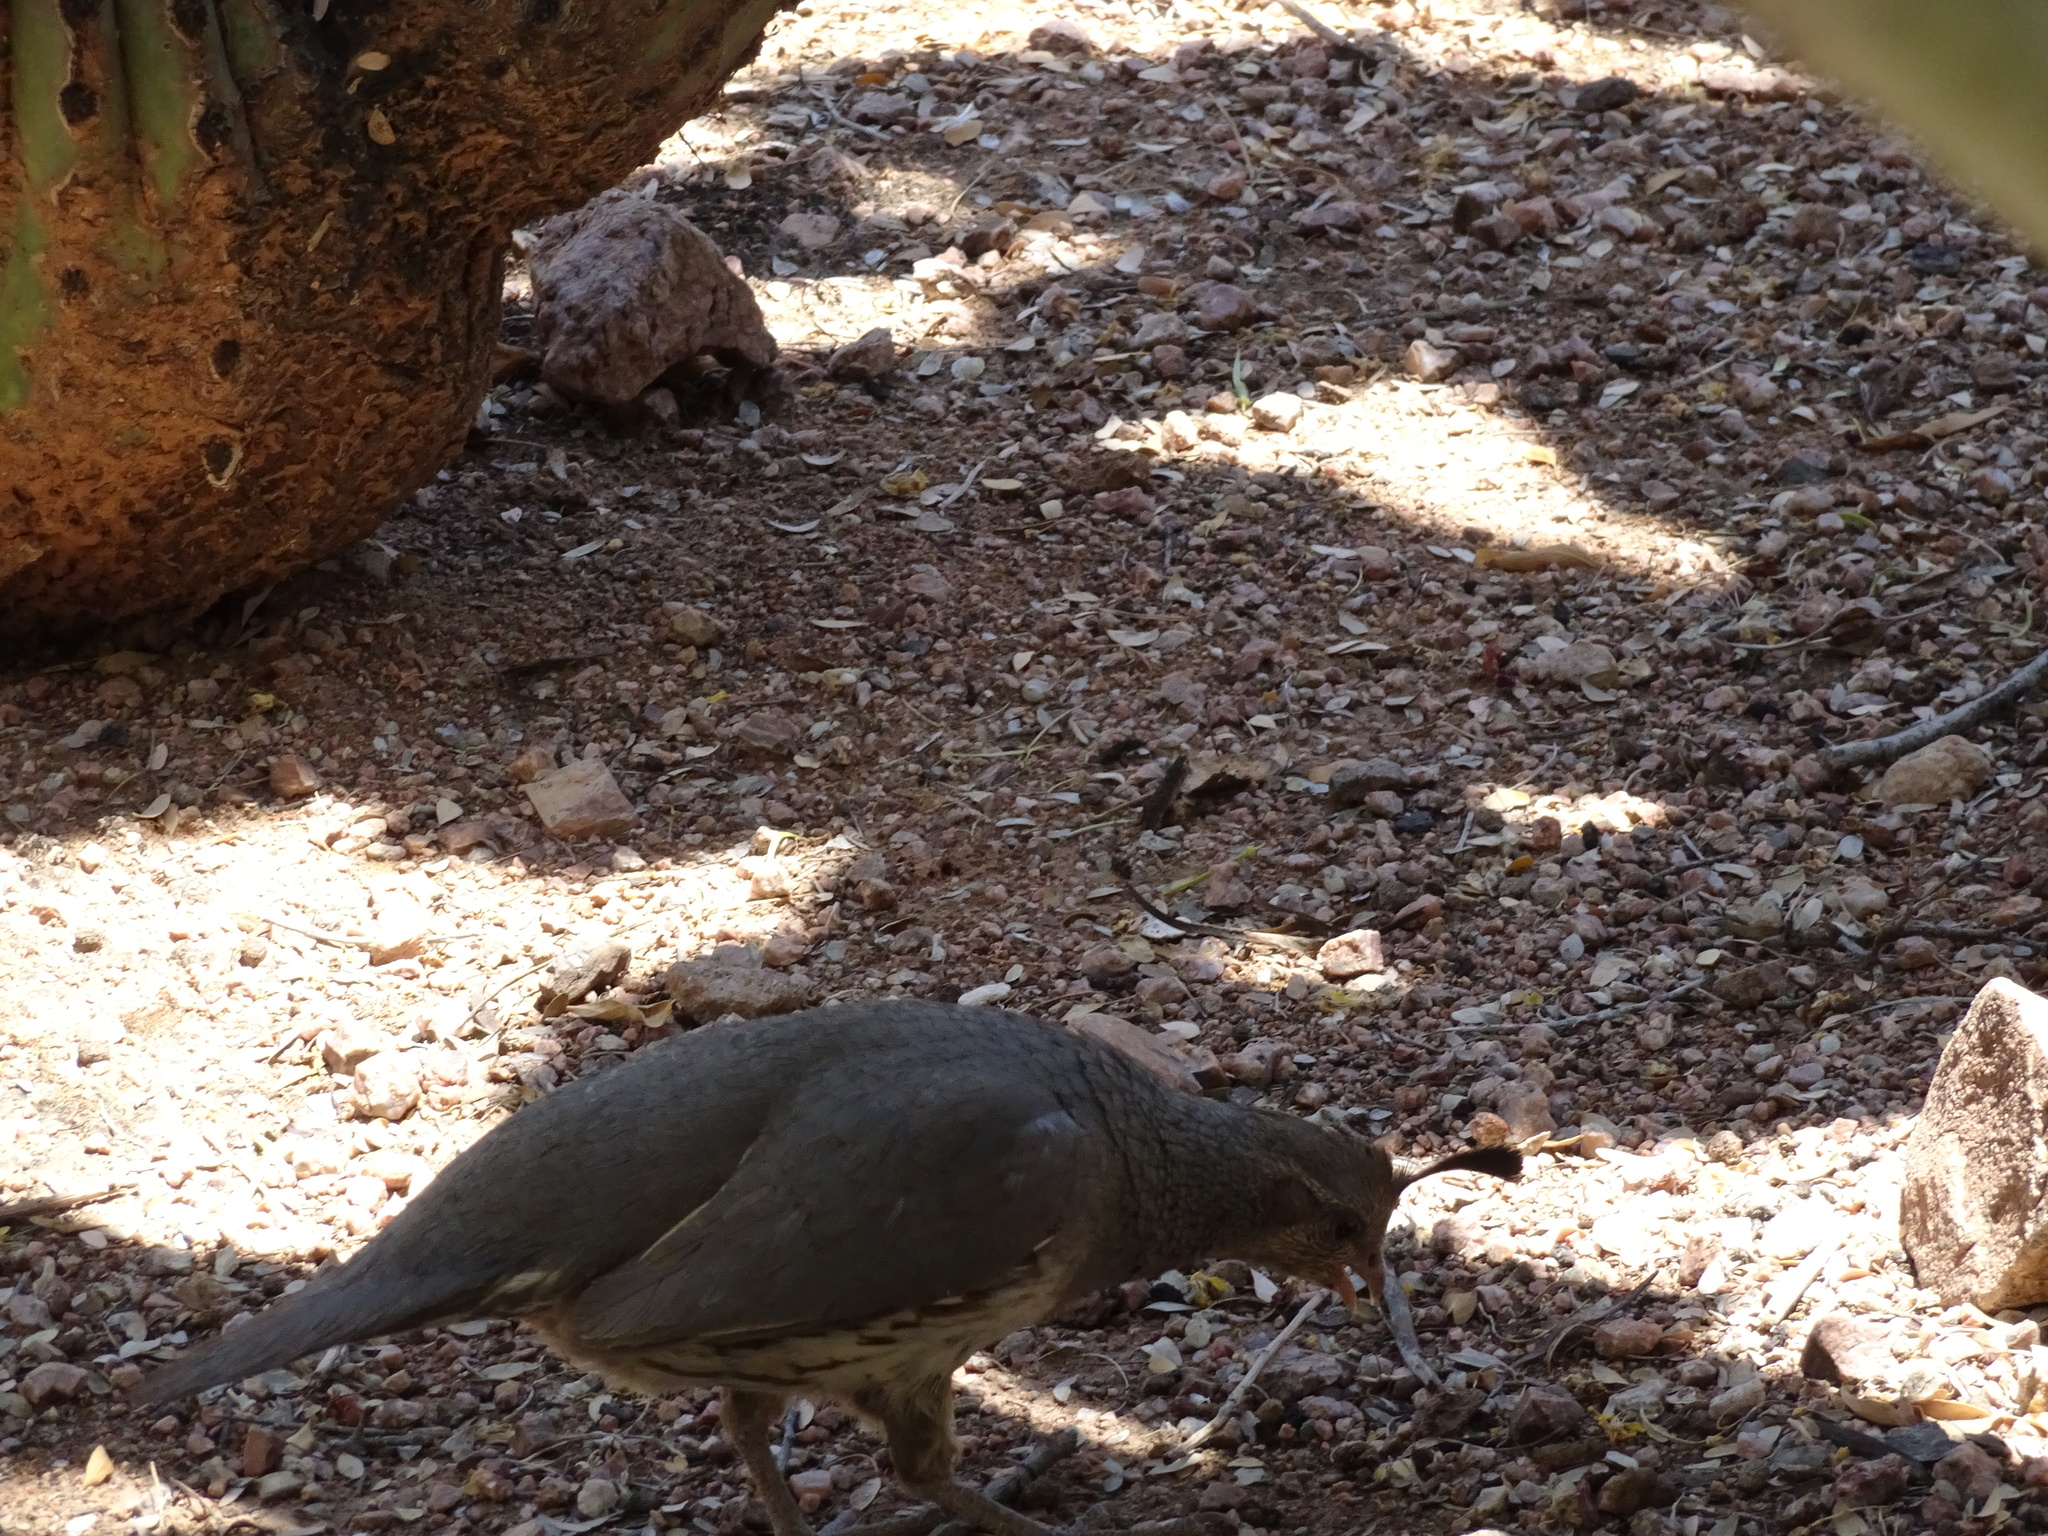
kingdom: Animalia
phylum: Chordata
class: Aves
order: Galliformes
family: Odontophoridae
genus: Callipepla
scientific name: Callipepla gambelii
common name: Gambel's quail
